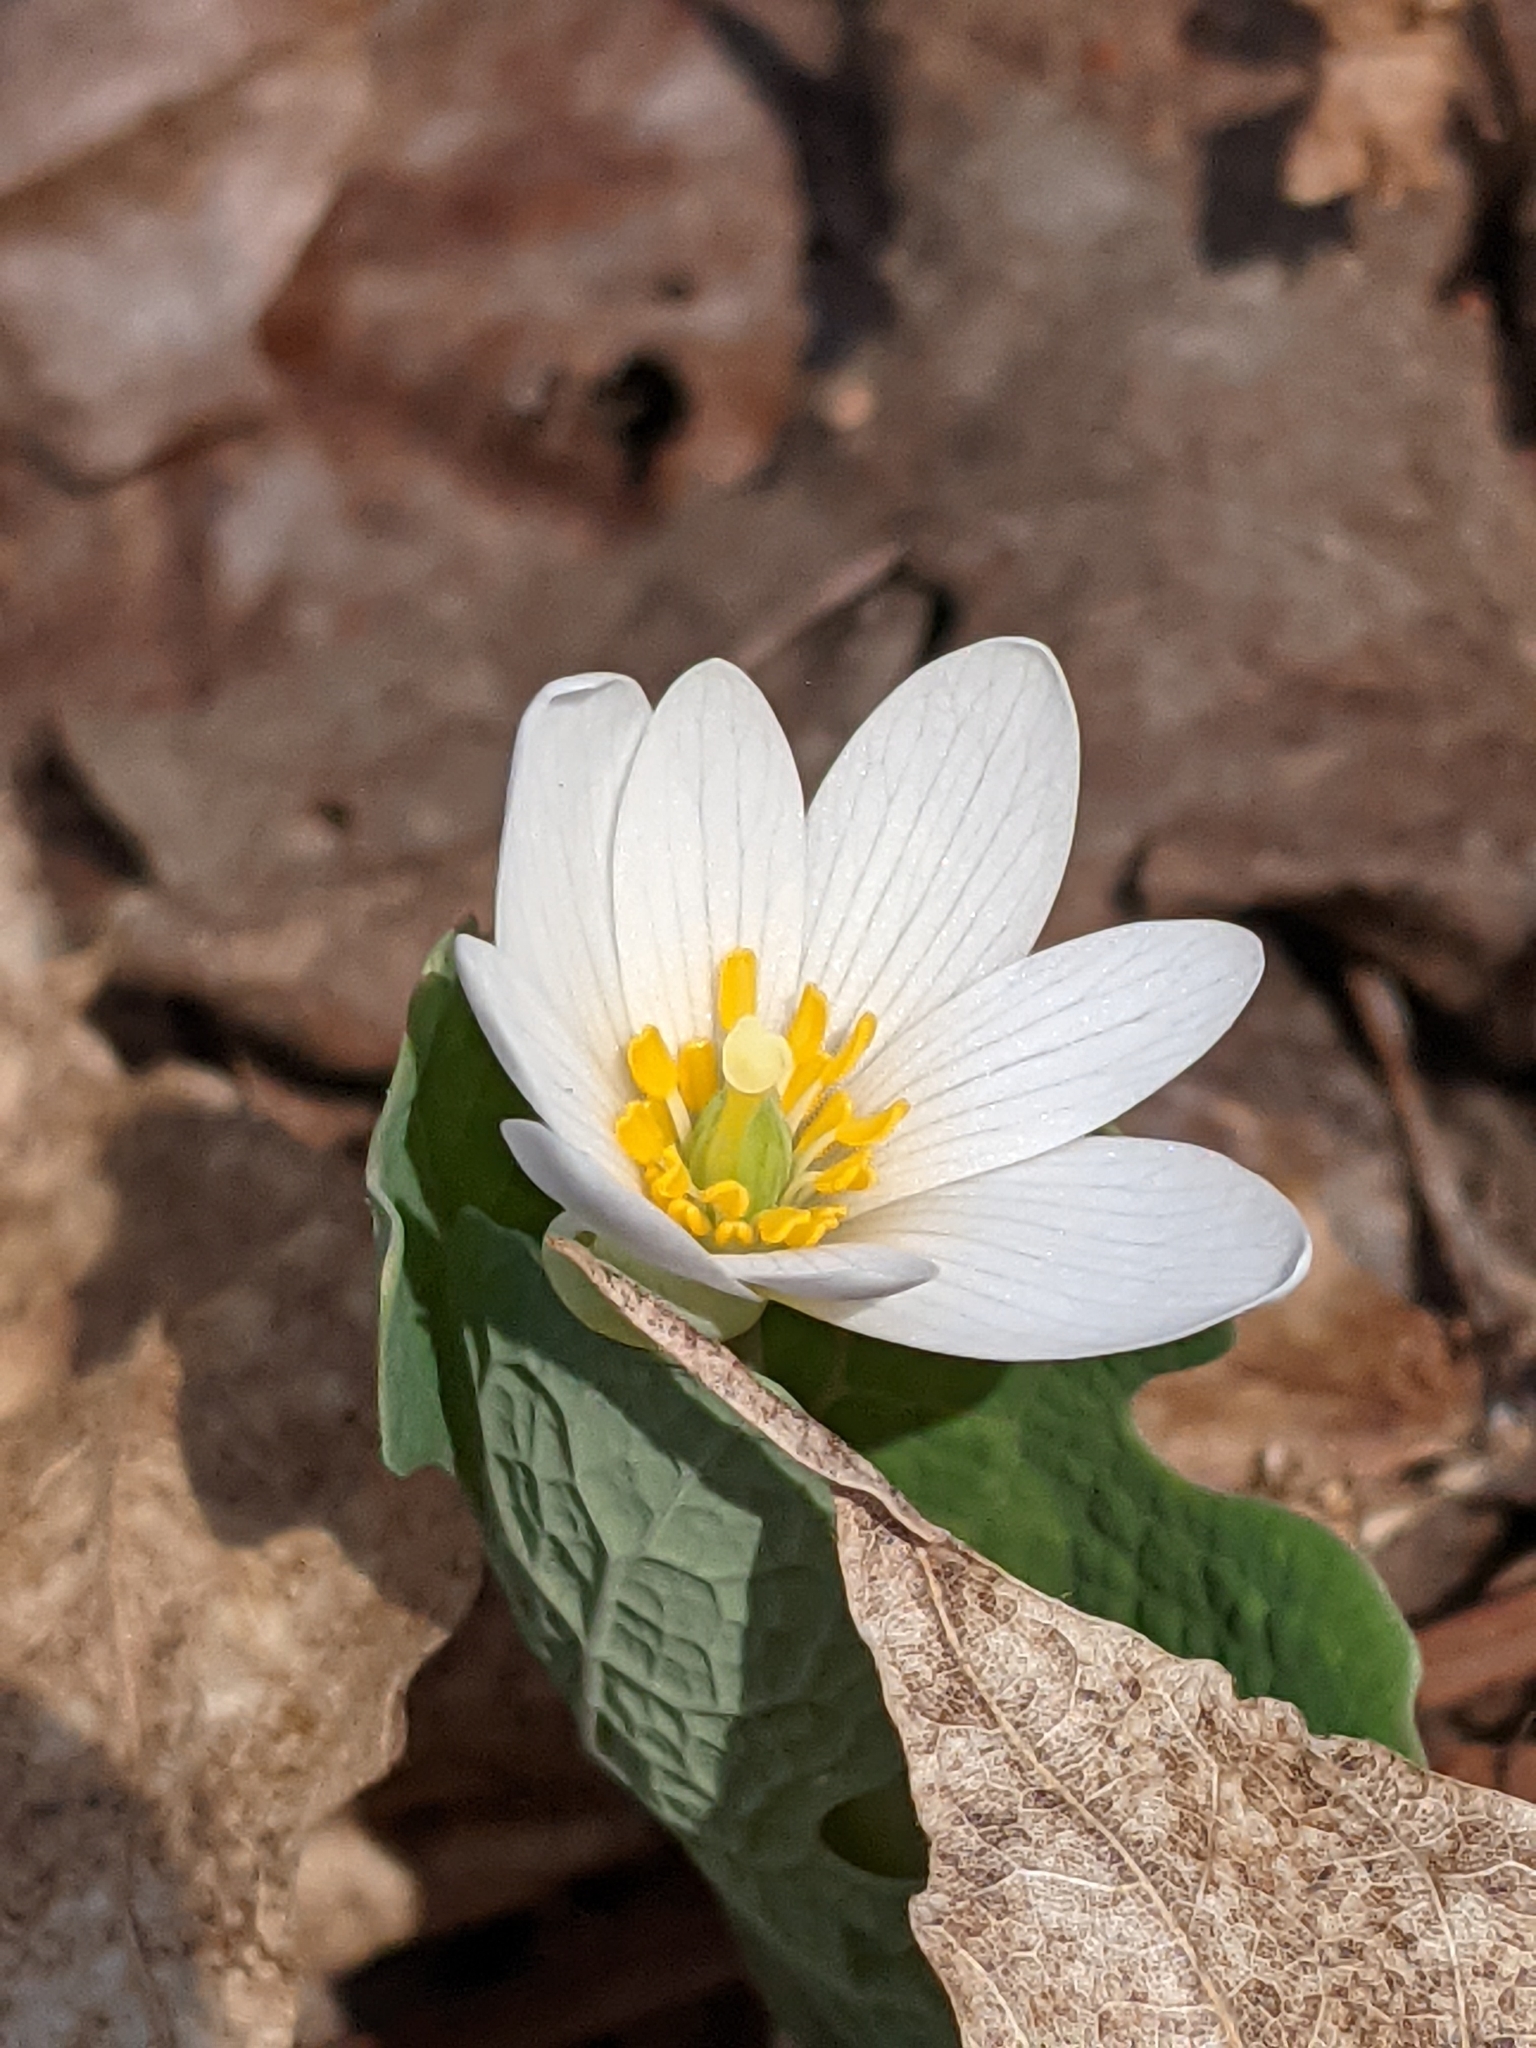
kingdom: Plantae
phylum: Tracheophyta
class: Magnoliopsida
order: Ranunculales
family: Papaveraceae
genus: Sanguinaria
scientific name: Sanguinaria canadensis
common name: Bloodroot
